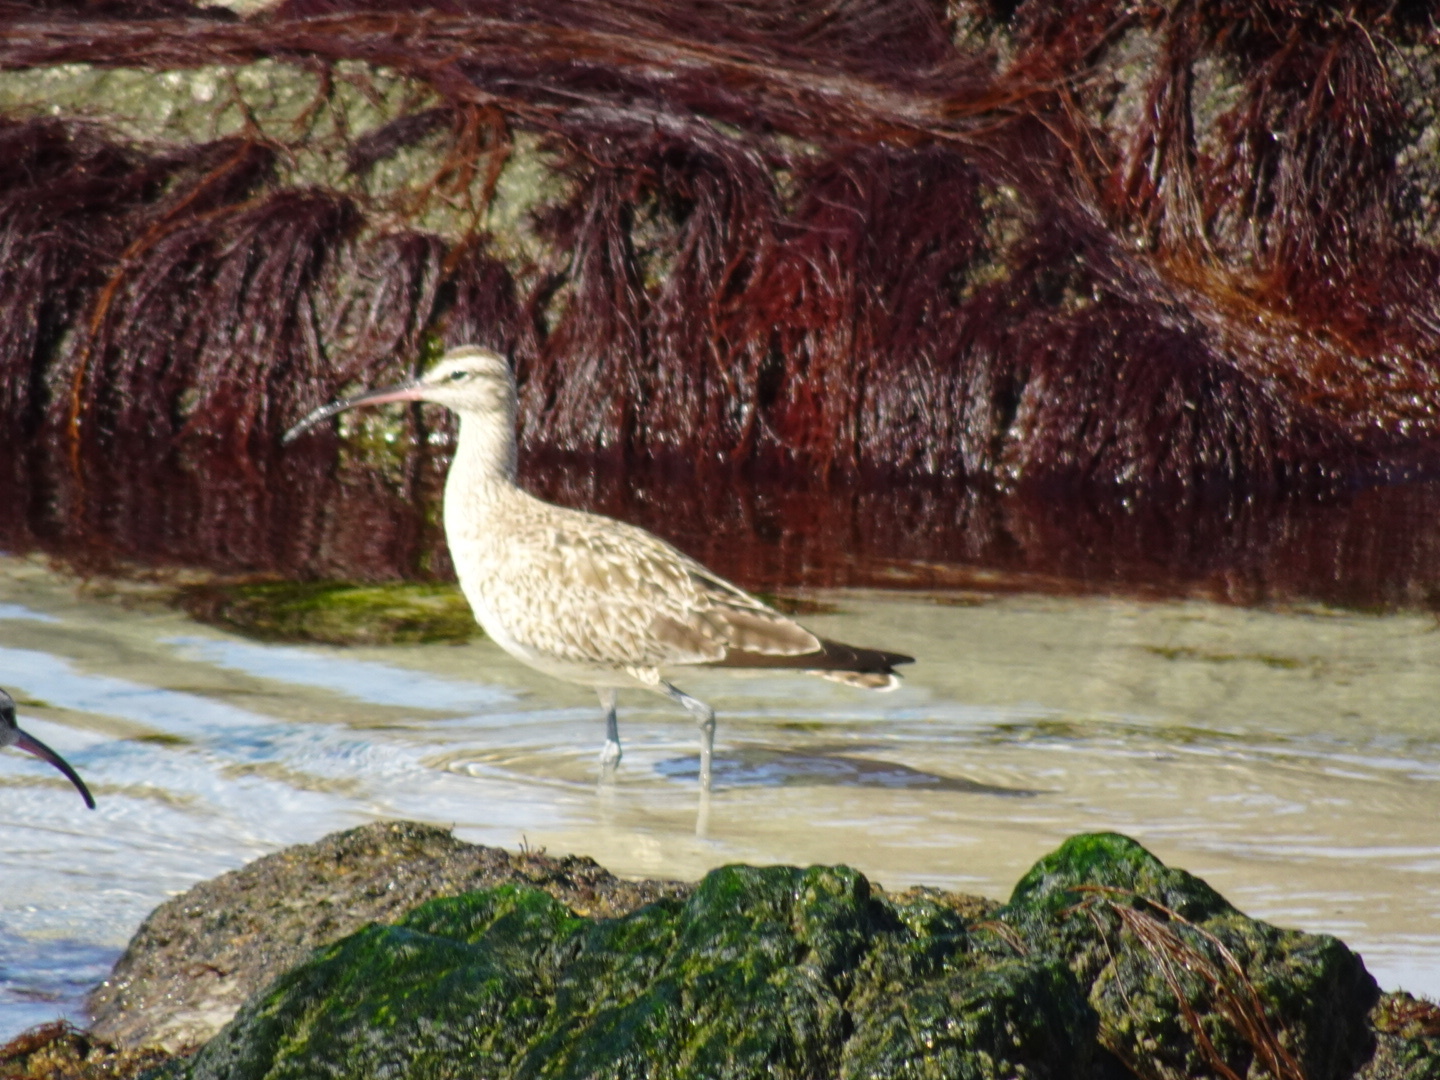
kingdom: Animalia
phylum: Chordata
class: Aves
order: Charadriiformes
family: Scolopacidae
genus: Numenius
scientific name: Numenius phaeopus
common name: Whimbrel
